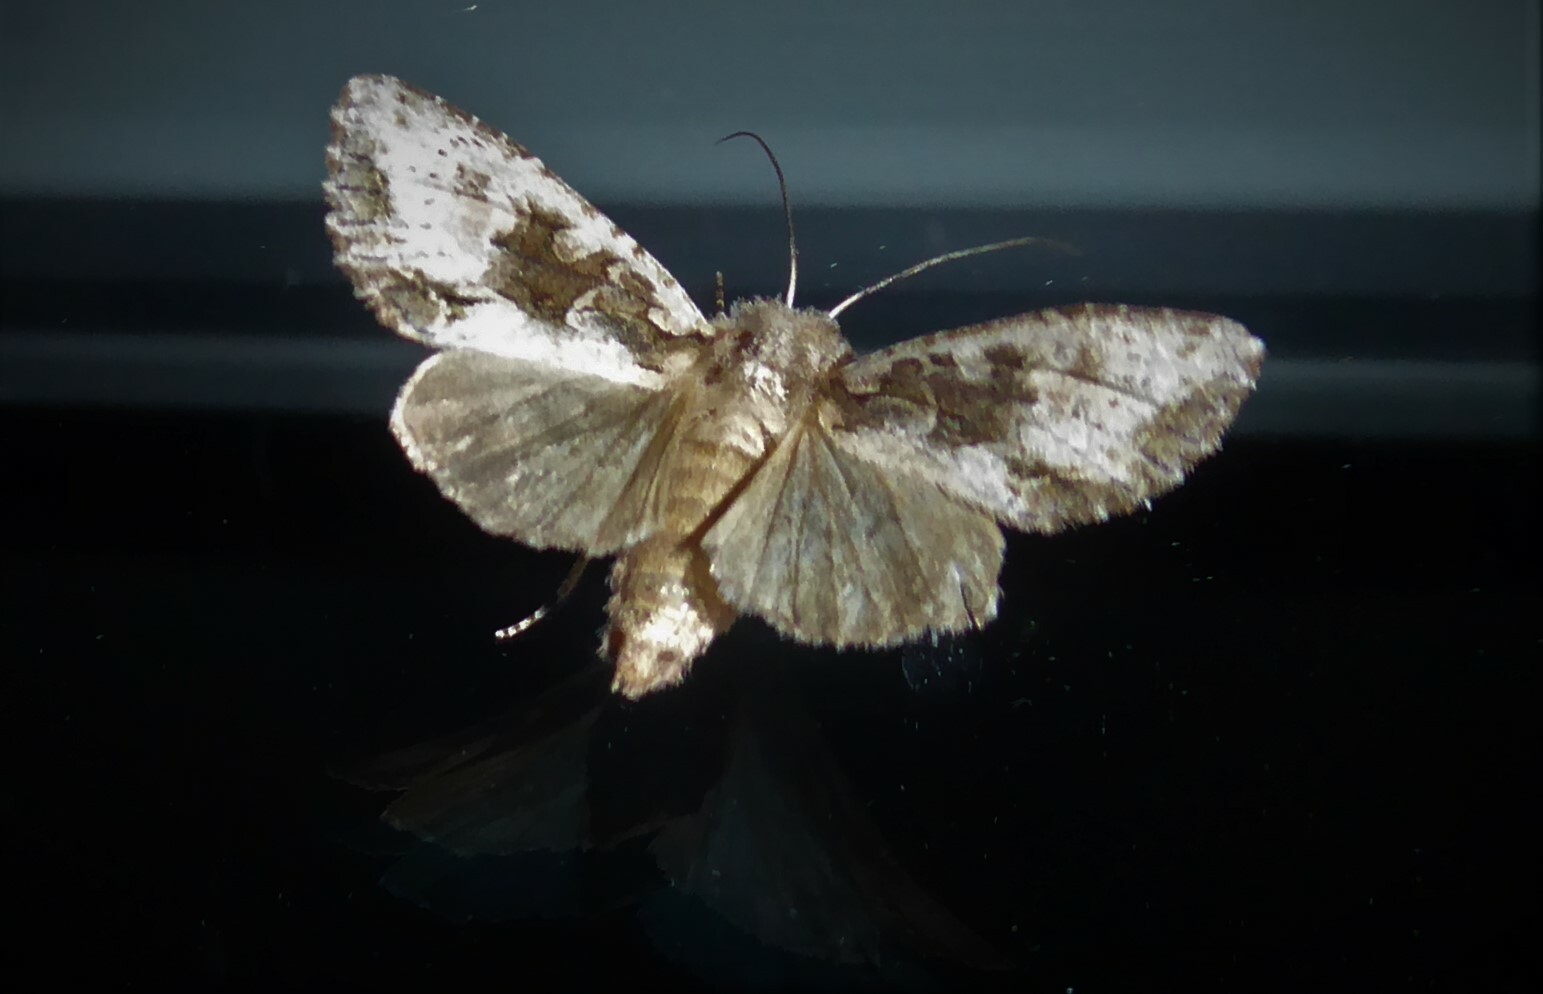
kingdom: Animalia
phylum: Arthropoda
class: Insecta
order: Lepidoptera
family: Noctuidae
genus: Ichneutica
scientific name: Ichneutica mutans
